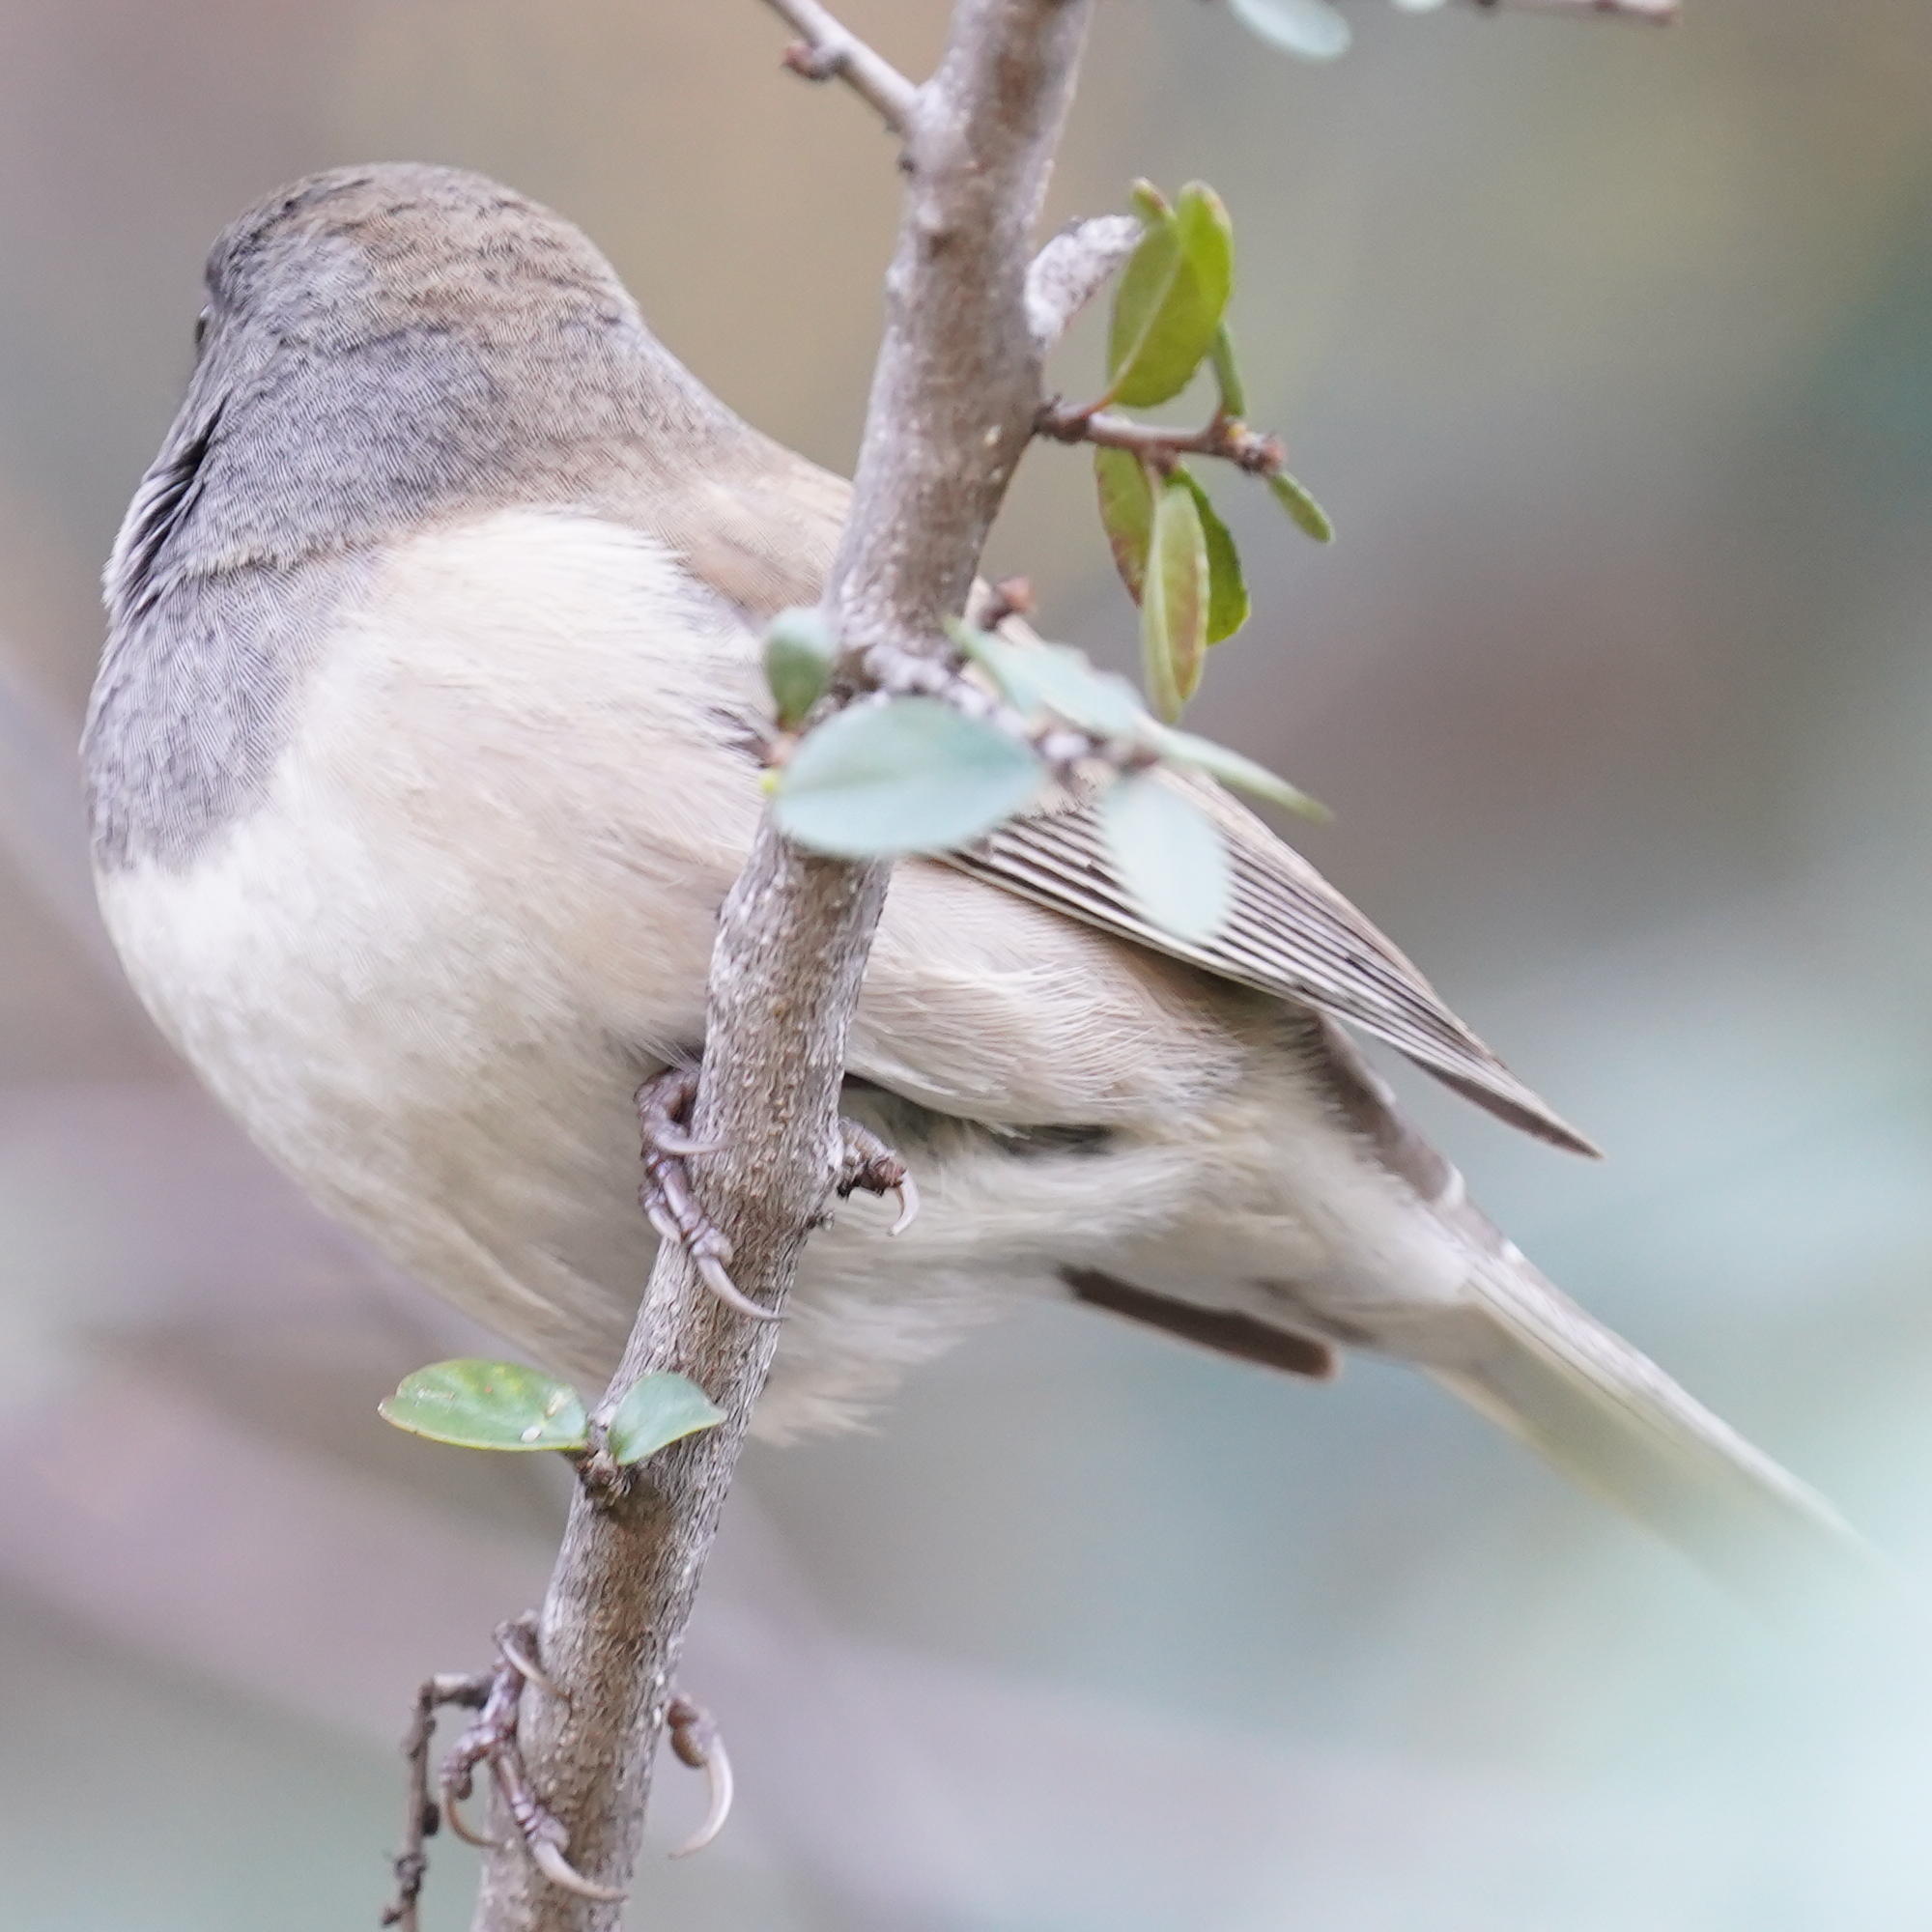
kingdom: Animalia
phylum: Chordata
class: Aves
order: Passeriformes
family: Passerellidae
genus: Junco
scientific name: Junco hyemalis
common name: Dark-eyed junco
